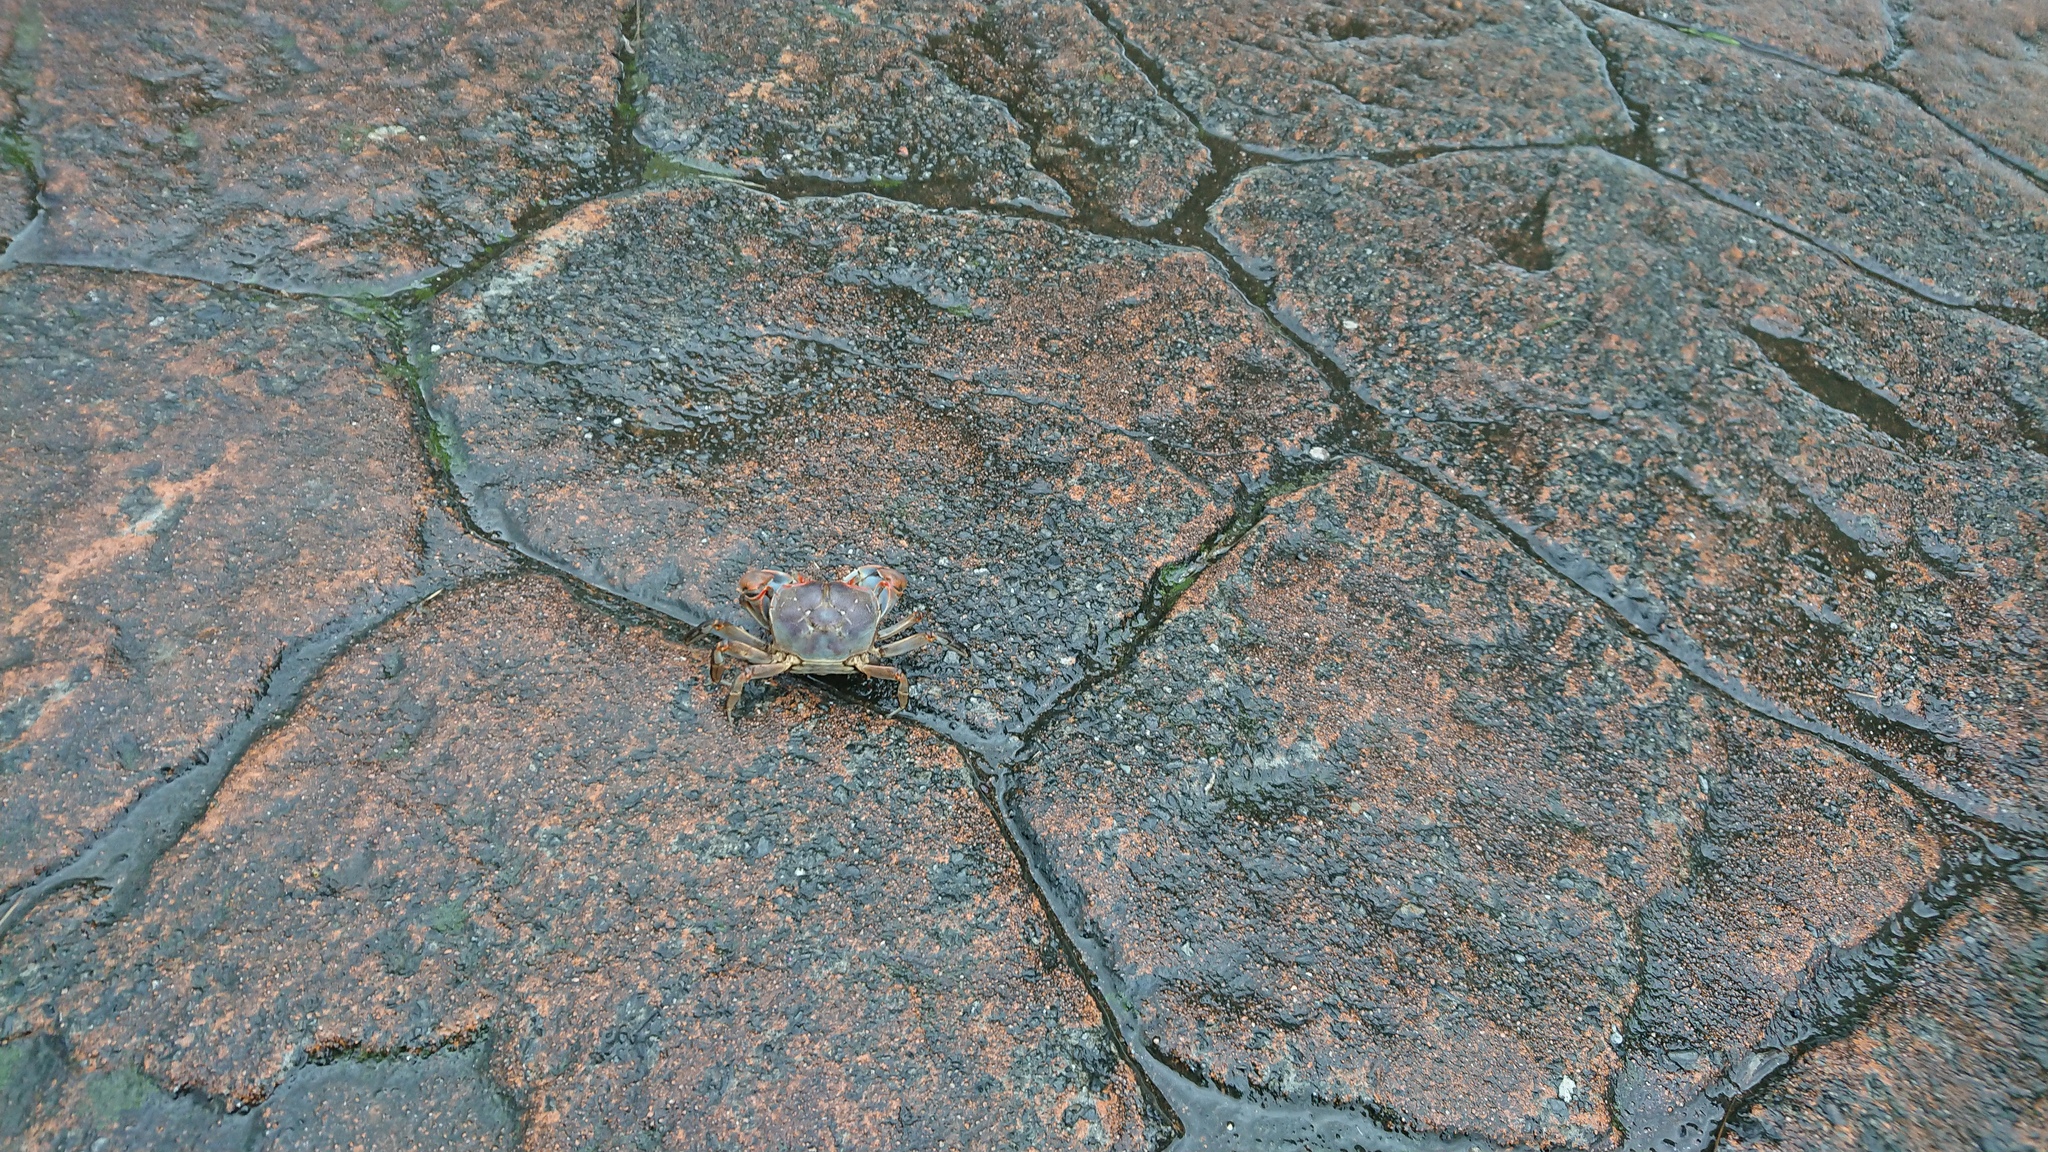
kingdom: Animalia
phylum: Arthropoda
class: Malacostraca
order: Decapoda
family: Varunidae
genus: Chasmagnathus
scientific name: Chasmagnathus convexus
